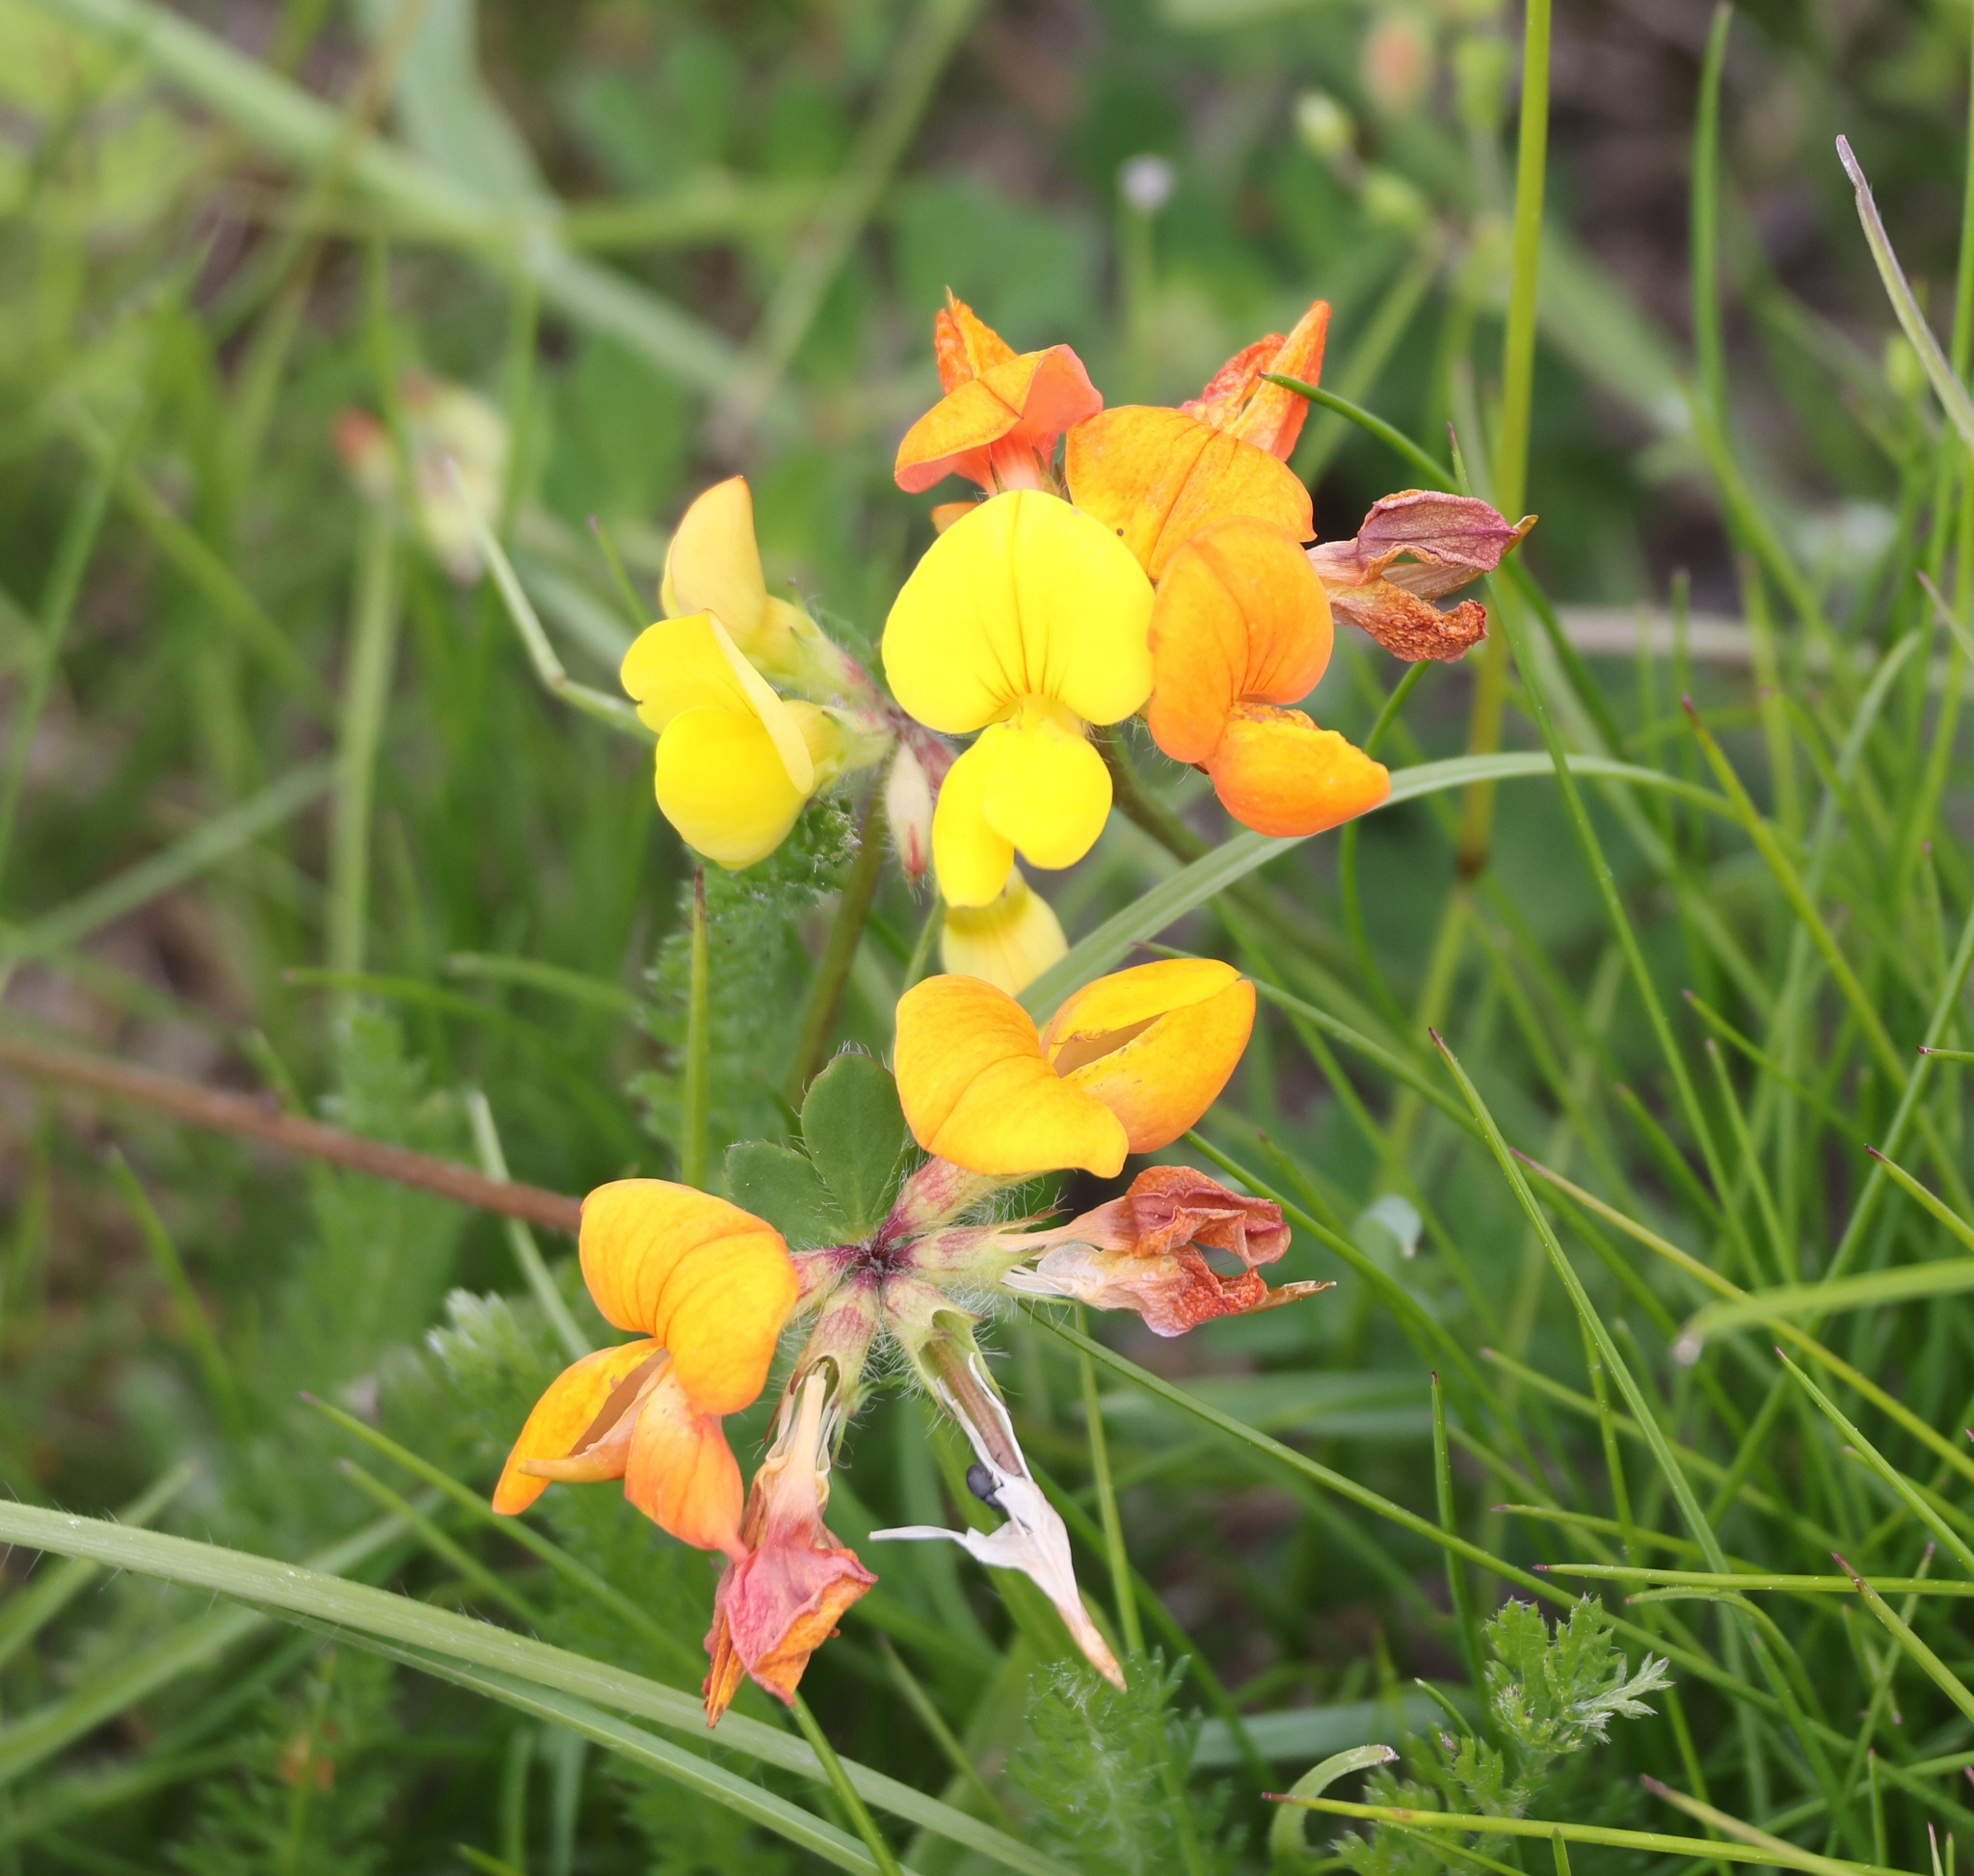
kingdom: Plantae
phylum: Tracheophyta
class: Magnoliopsida
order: Fabales
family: Fabaceae
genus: Lotus
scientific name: Lotus corniculatus
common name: Common bird's-foot-trefoil
